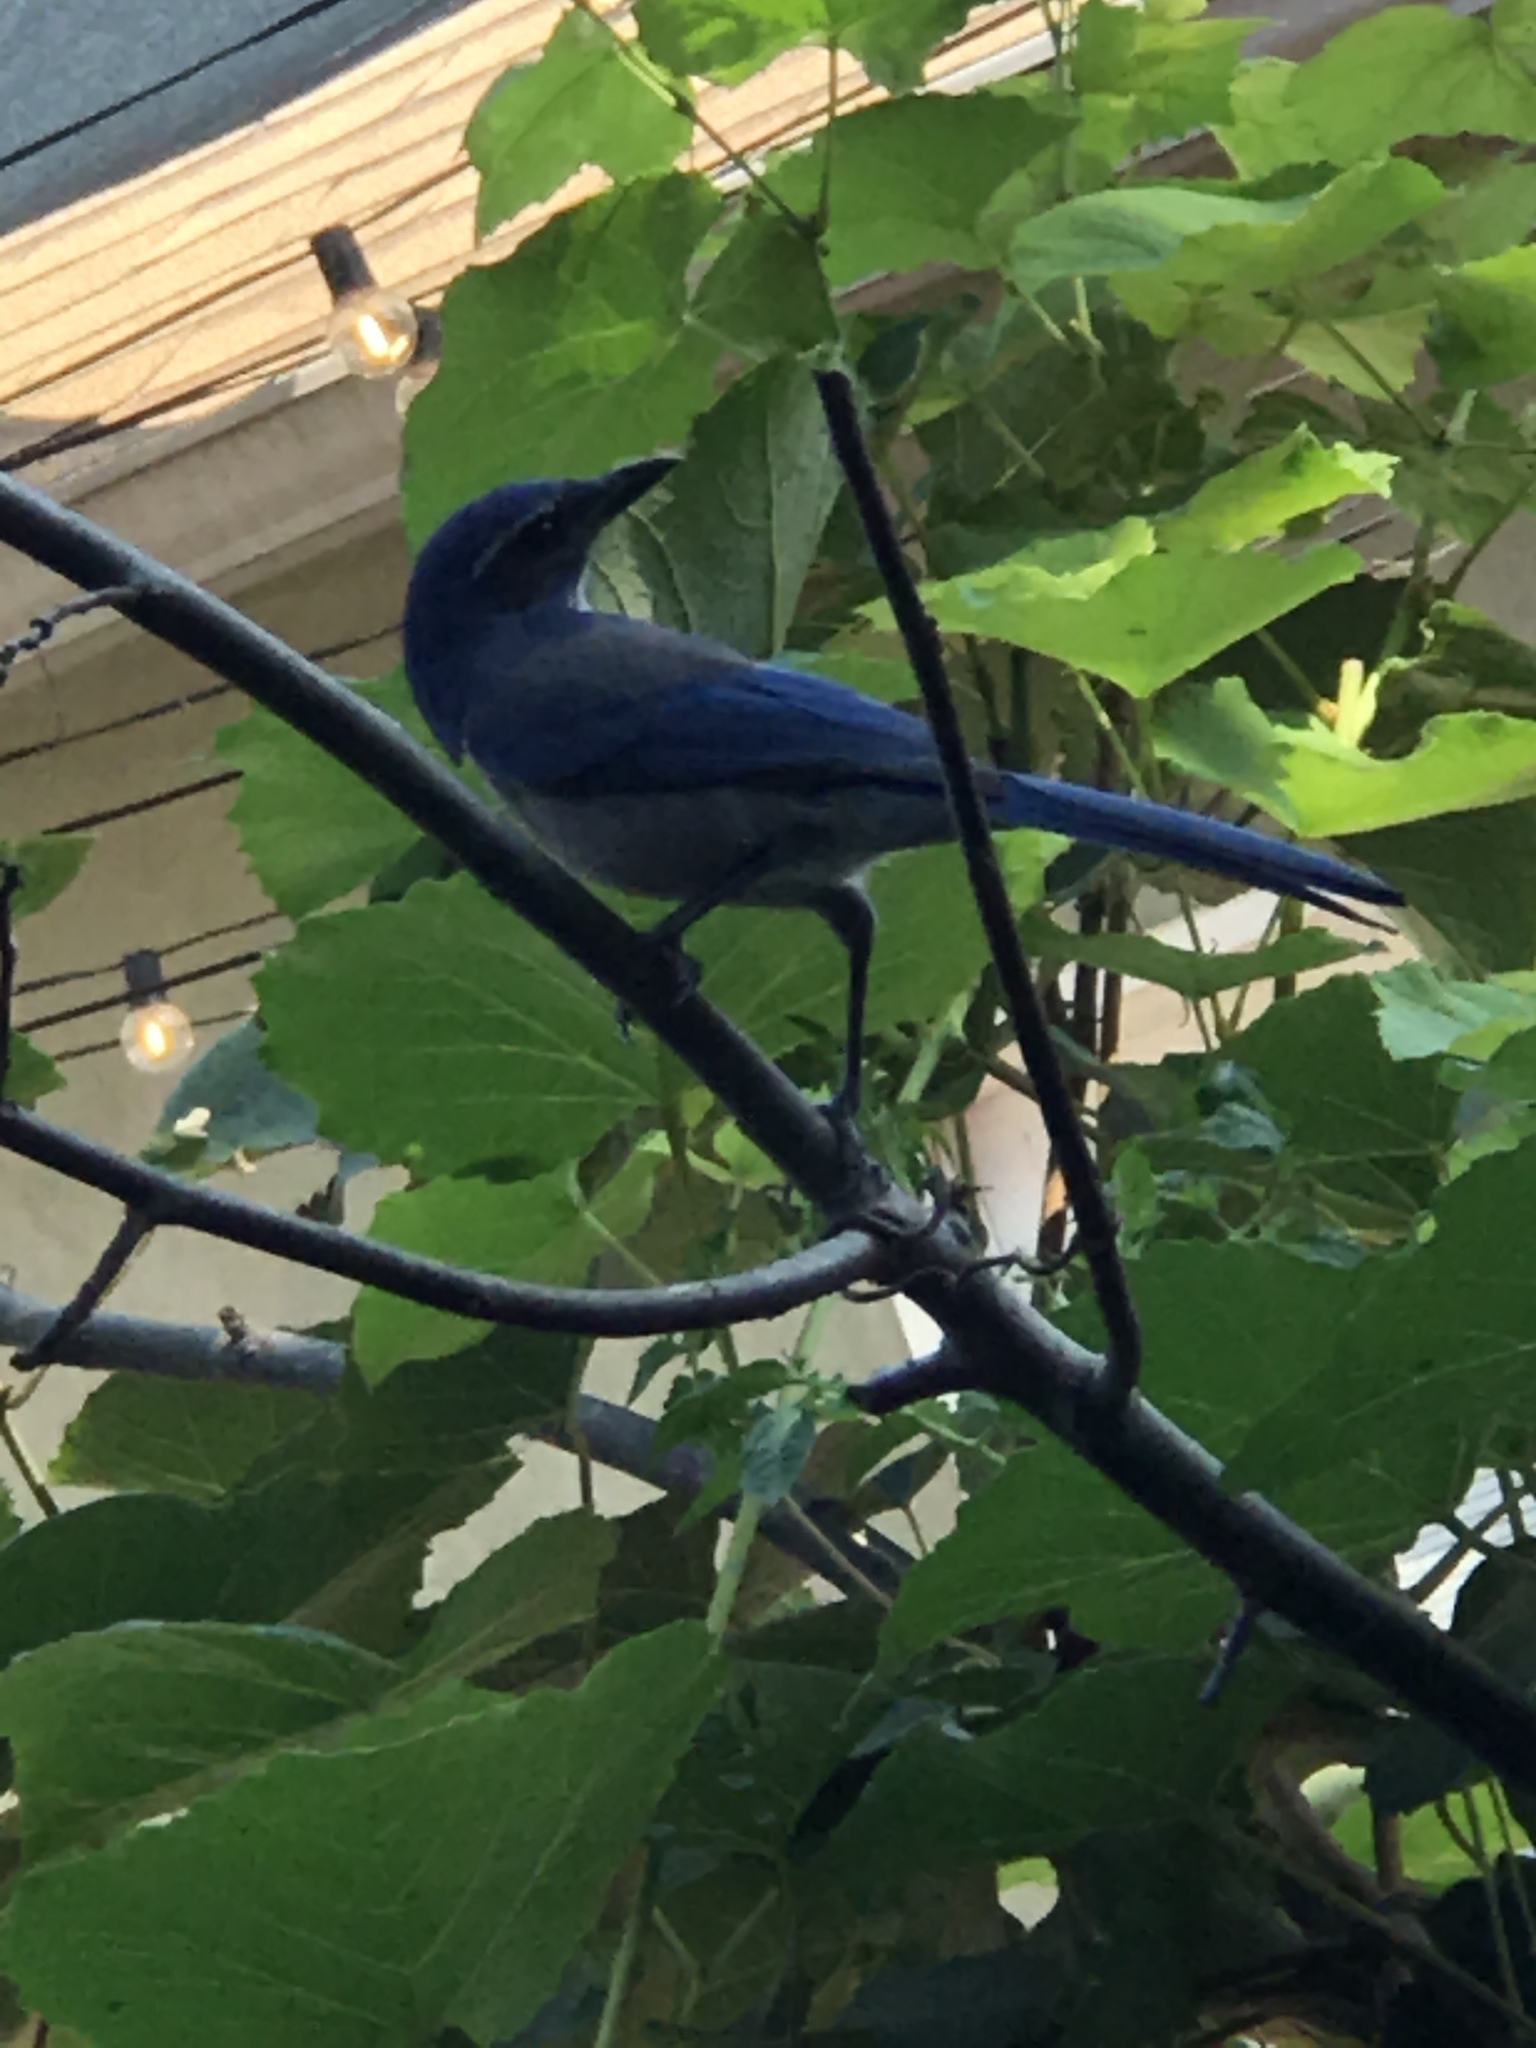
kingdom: Animalia
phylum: Chordata
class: Aves
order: Passeriformes
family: Corvidae
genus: Aphelocoma
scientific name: Aphelocoma californica
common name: California scrub-jay
